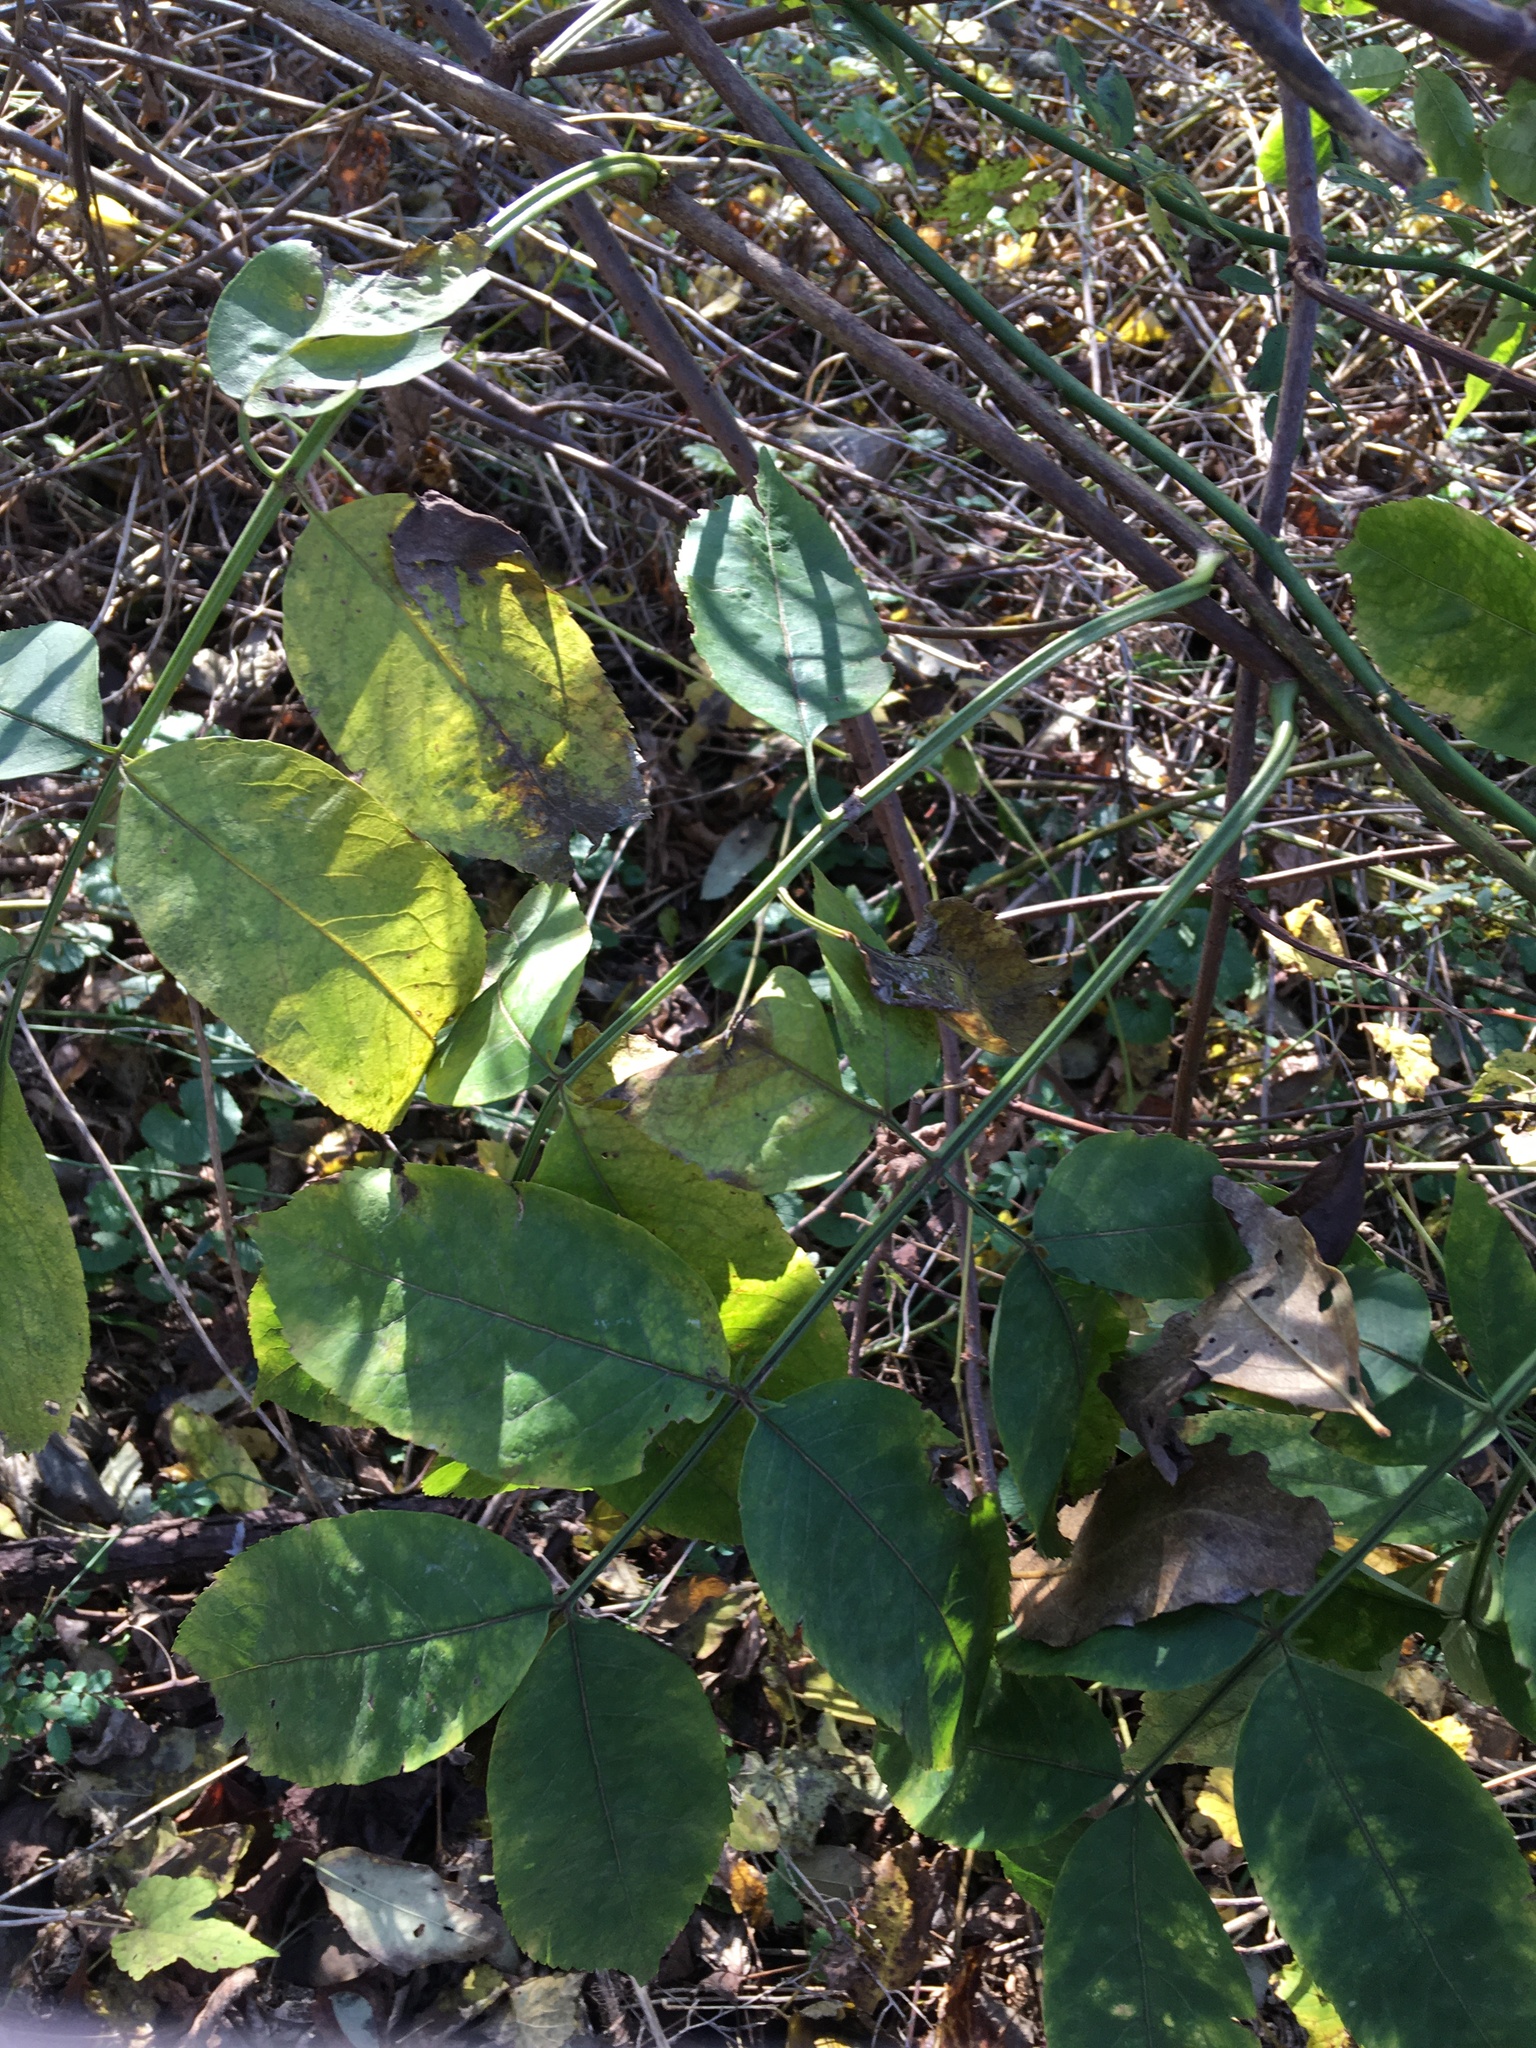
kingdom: Plantae
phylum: Tracheophyta
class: Magnoliopsida
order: Dipsacales
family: Viburnaceae
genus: Sambucus
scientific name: Sambucus canadensis
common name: American elder
